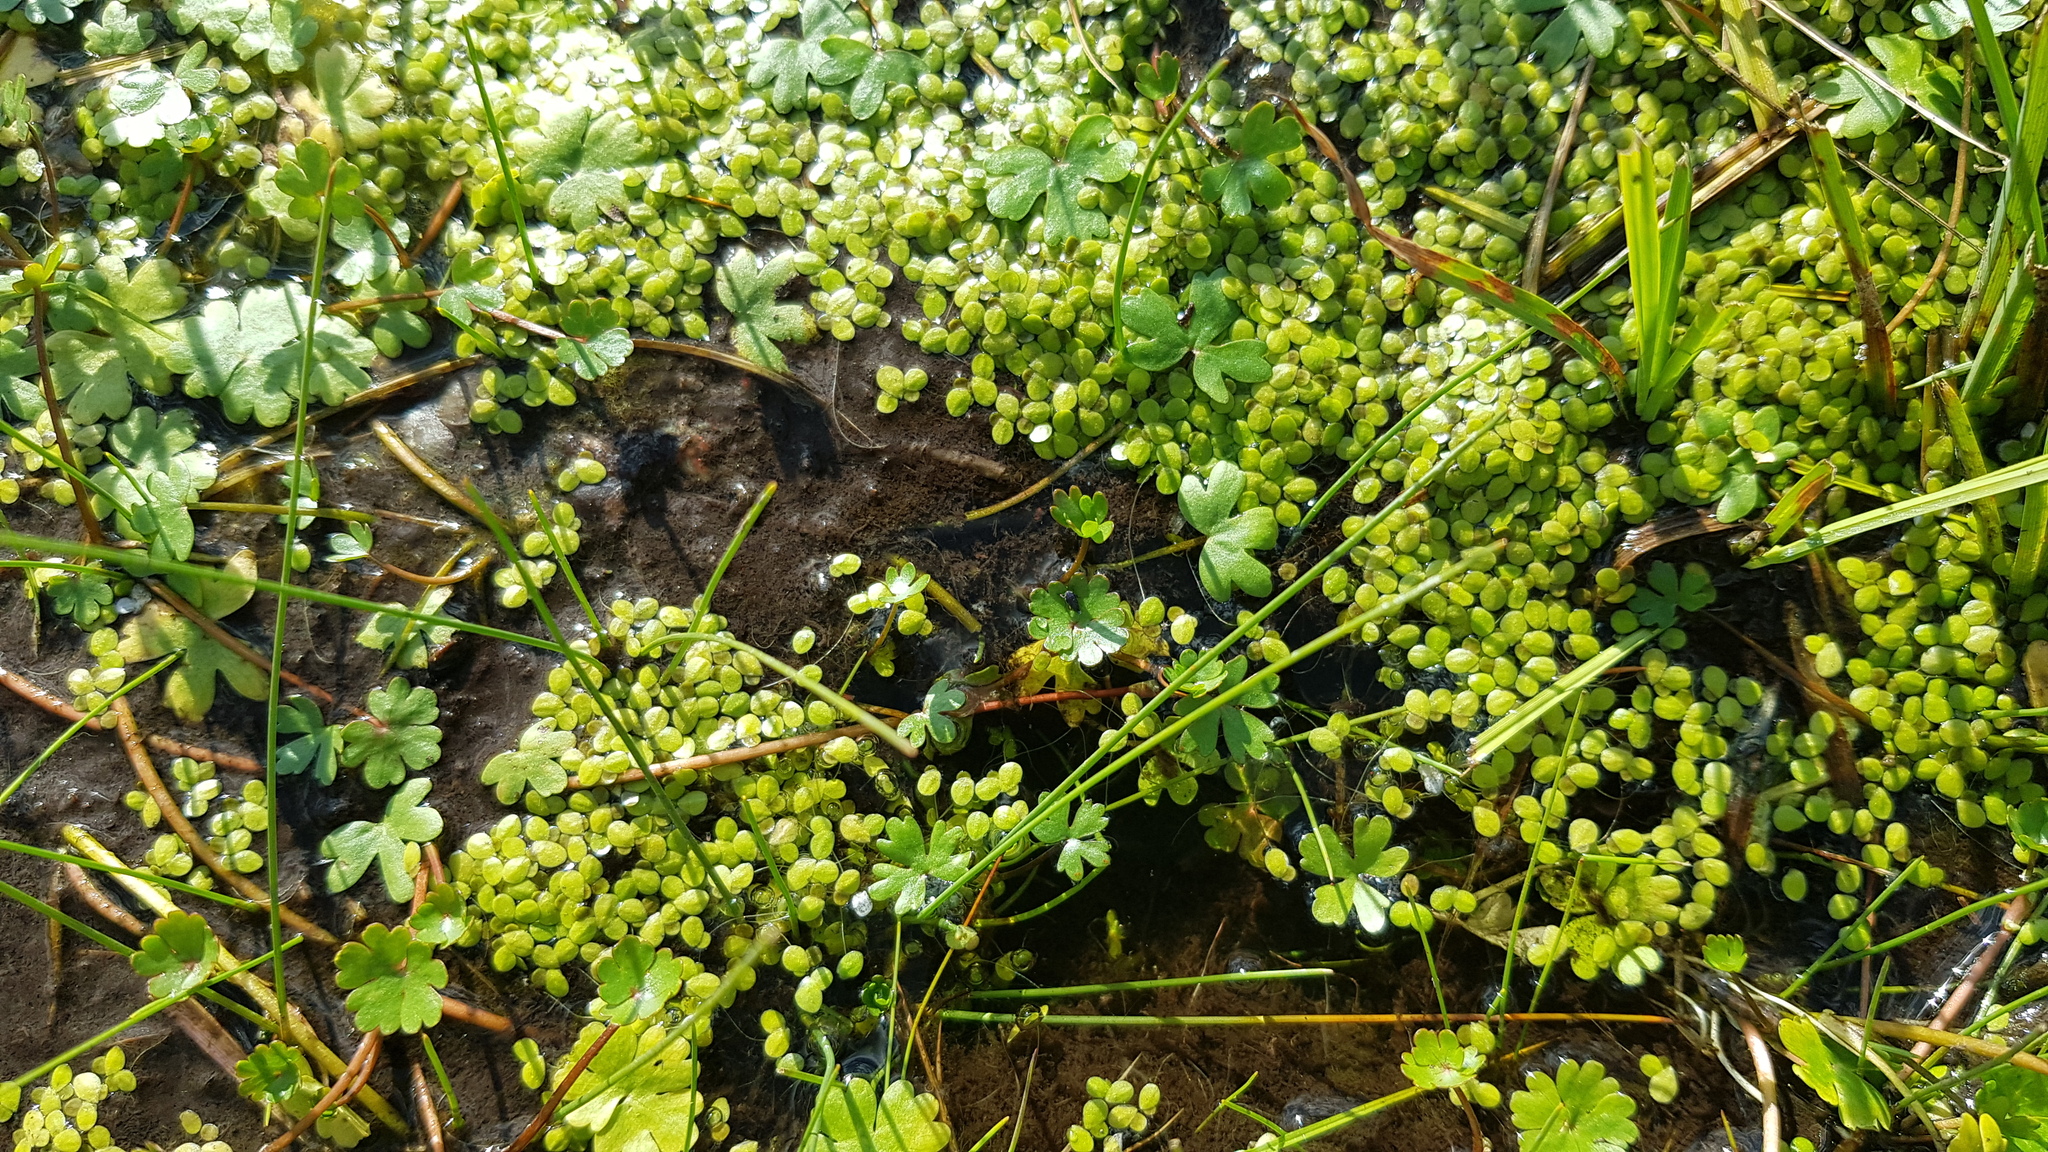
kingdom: Plantae
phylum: Tracheophyta
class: Liliopsida
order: Alismatales
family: Araceae
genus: Lemna
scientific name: Lemna minor
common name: Common duckweed
